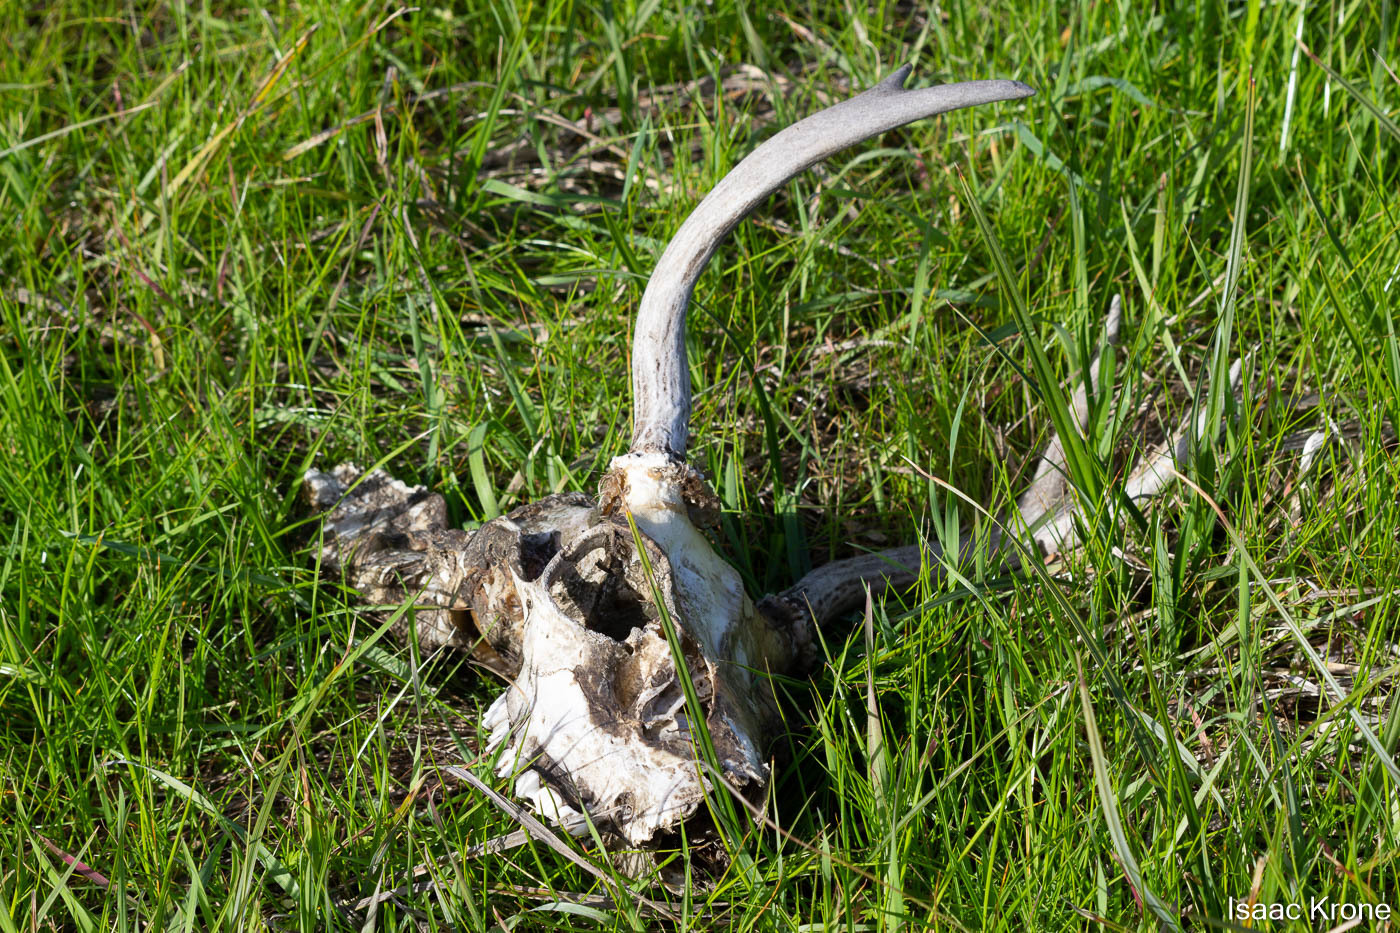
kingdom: Animalia
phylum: Chordata
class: Mammalia
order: Artiodactyla
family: Cervidae
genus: Odocoileus
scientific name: Odocoileus hemionus
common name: Mule deer
